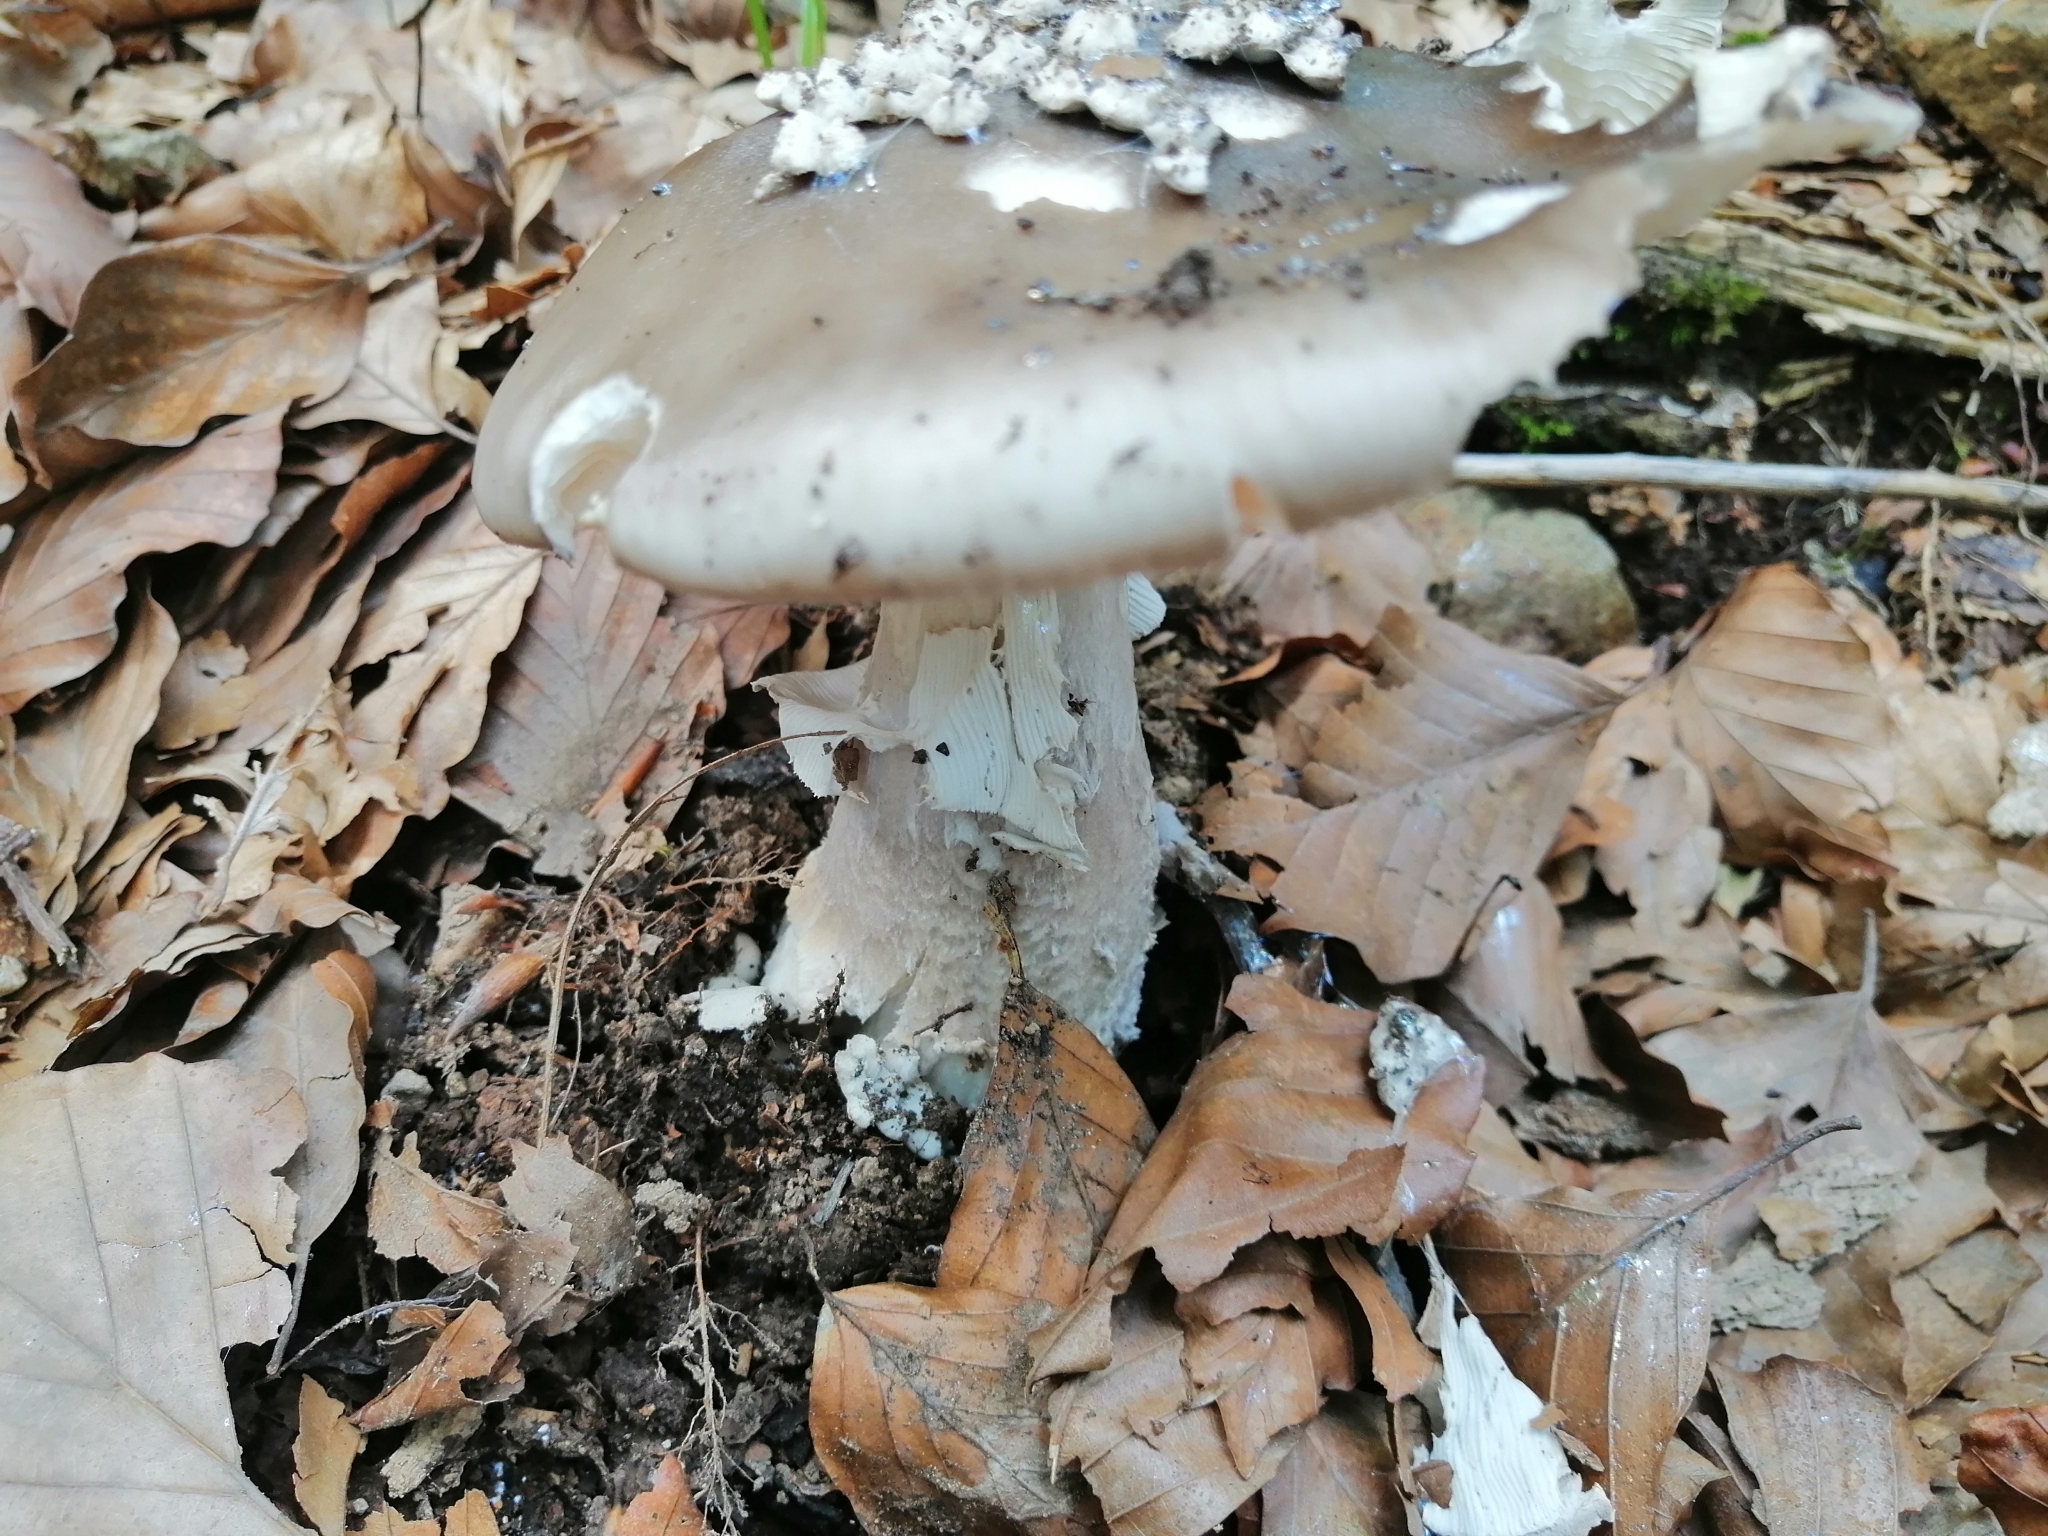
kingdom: Fungi
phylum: Basidiomycota
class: Agaricomycetes
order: Agaricales
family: Amanitaceae
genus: Amanita
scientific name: Amanita excelsa
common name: European false blusher
